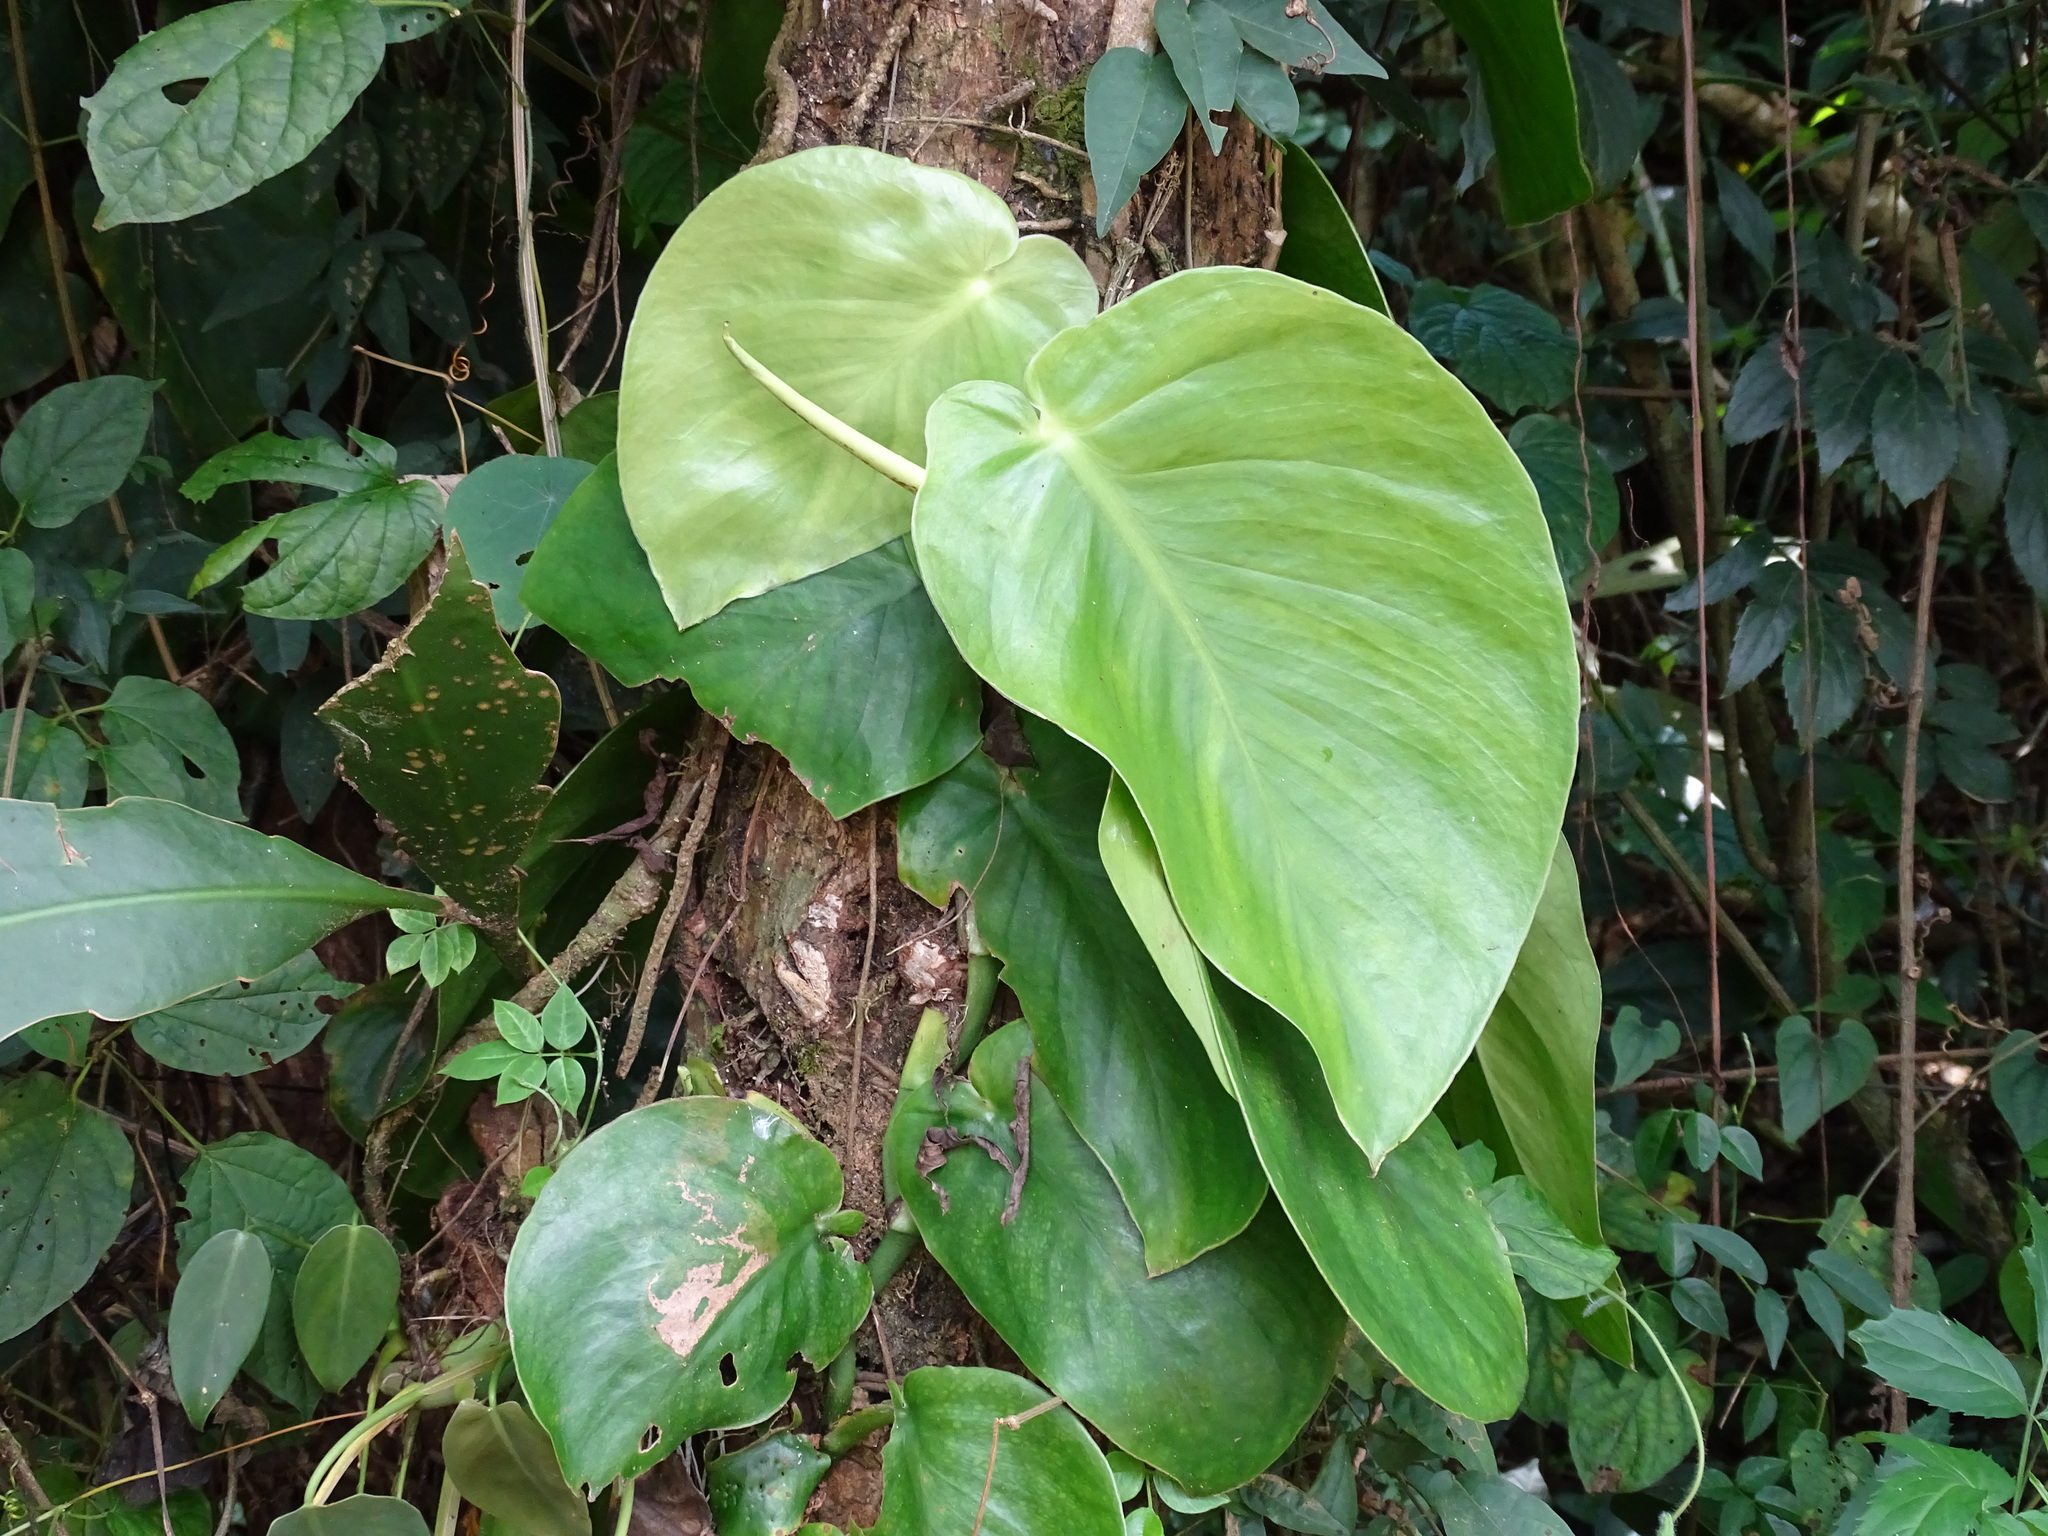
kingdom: Plantae
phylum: Tracheophyta
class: Liliopsida
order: Alismatales
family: Araceae
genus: Monstera
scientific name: Monstera acuminata
